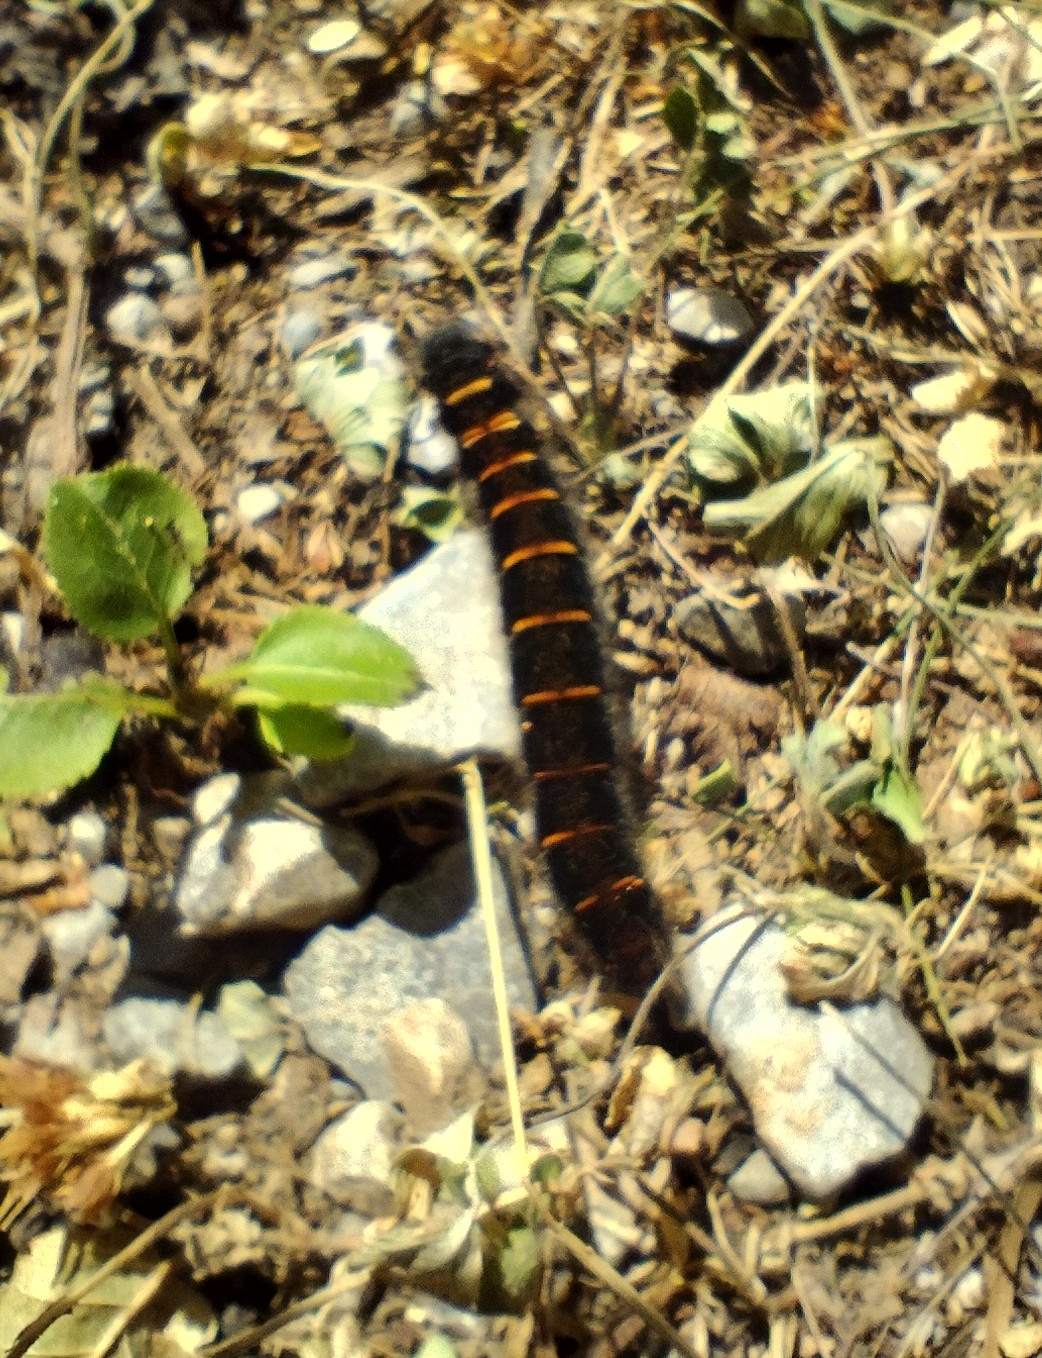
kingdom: Animalia
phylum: Arthropoda
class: Insecta
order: Lepidoptera
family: Lasiocampidae
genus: Macrothylacia
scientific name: Macrothylacia rubi
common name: Fox moth
